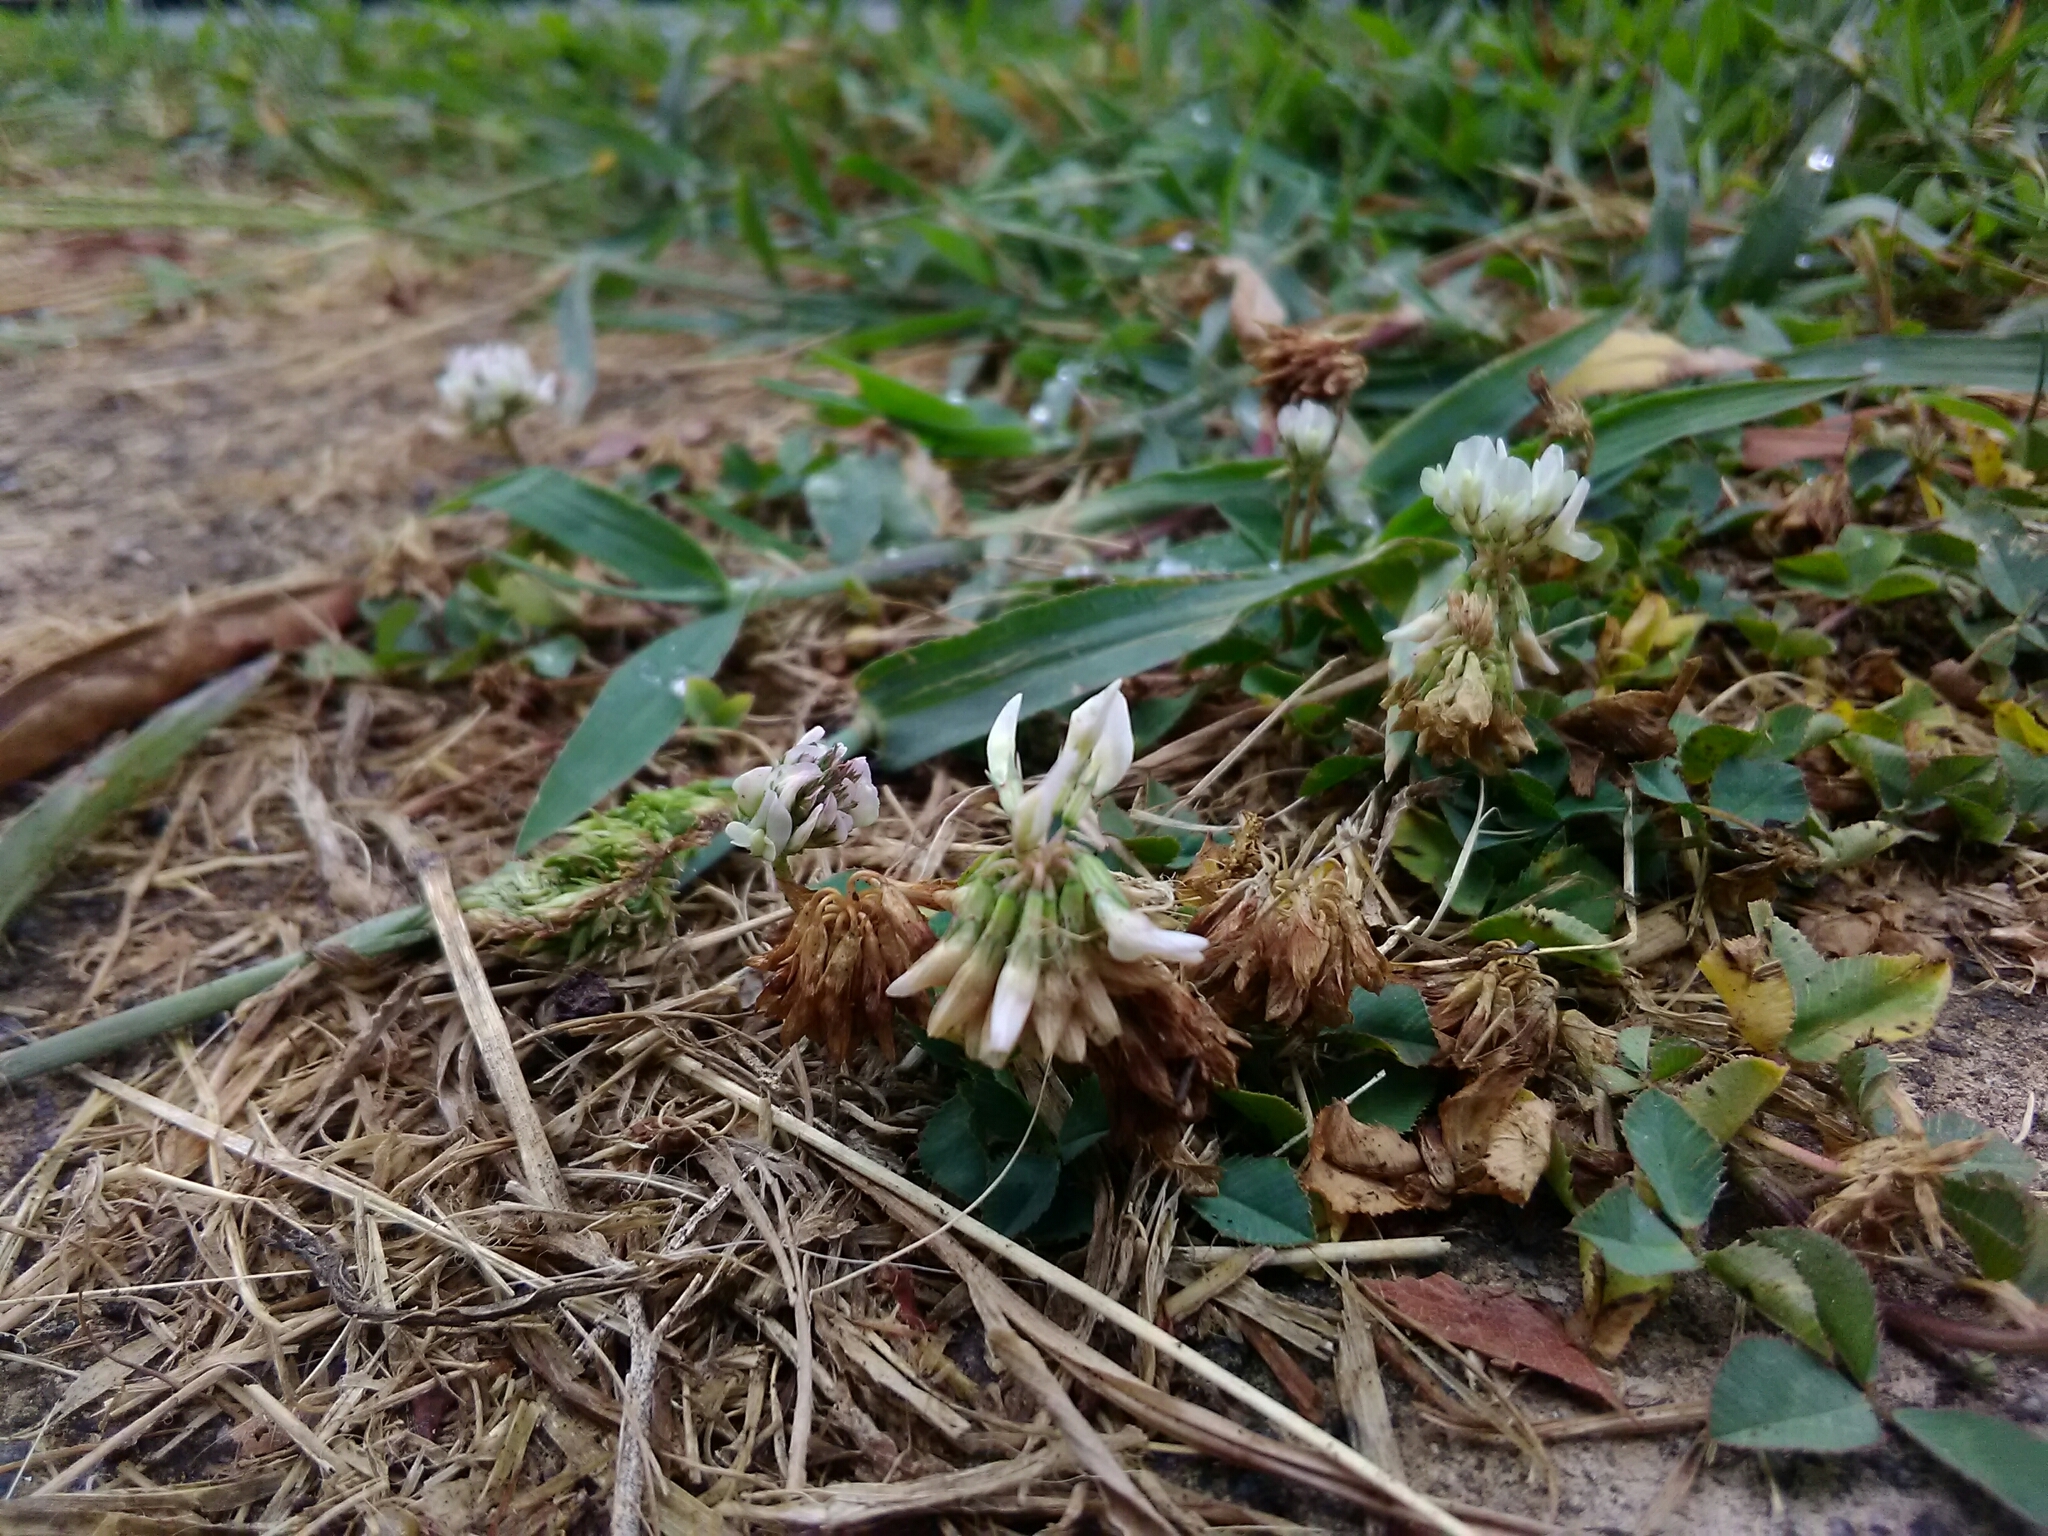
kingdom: Plantae
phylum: Tracheophyta
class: Magnoliopsida
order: Fabales
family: Fabaceae
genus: Trifolium
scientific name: Trifolium repens
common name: White clover
